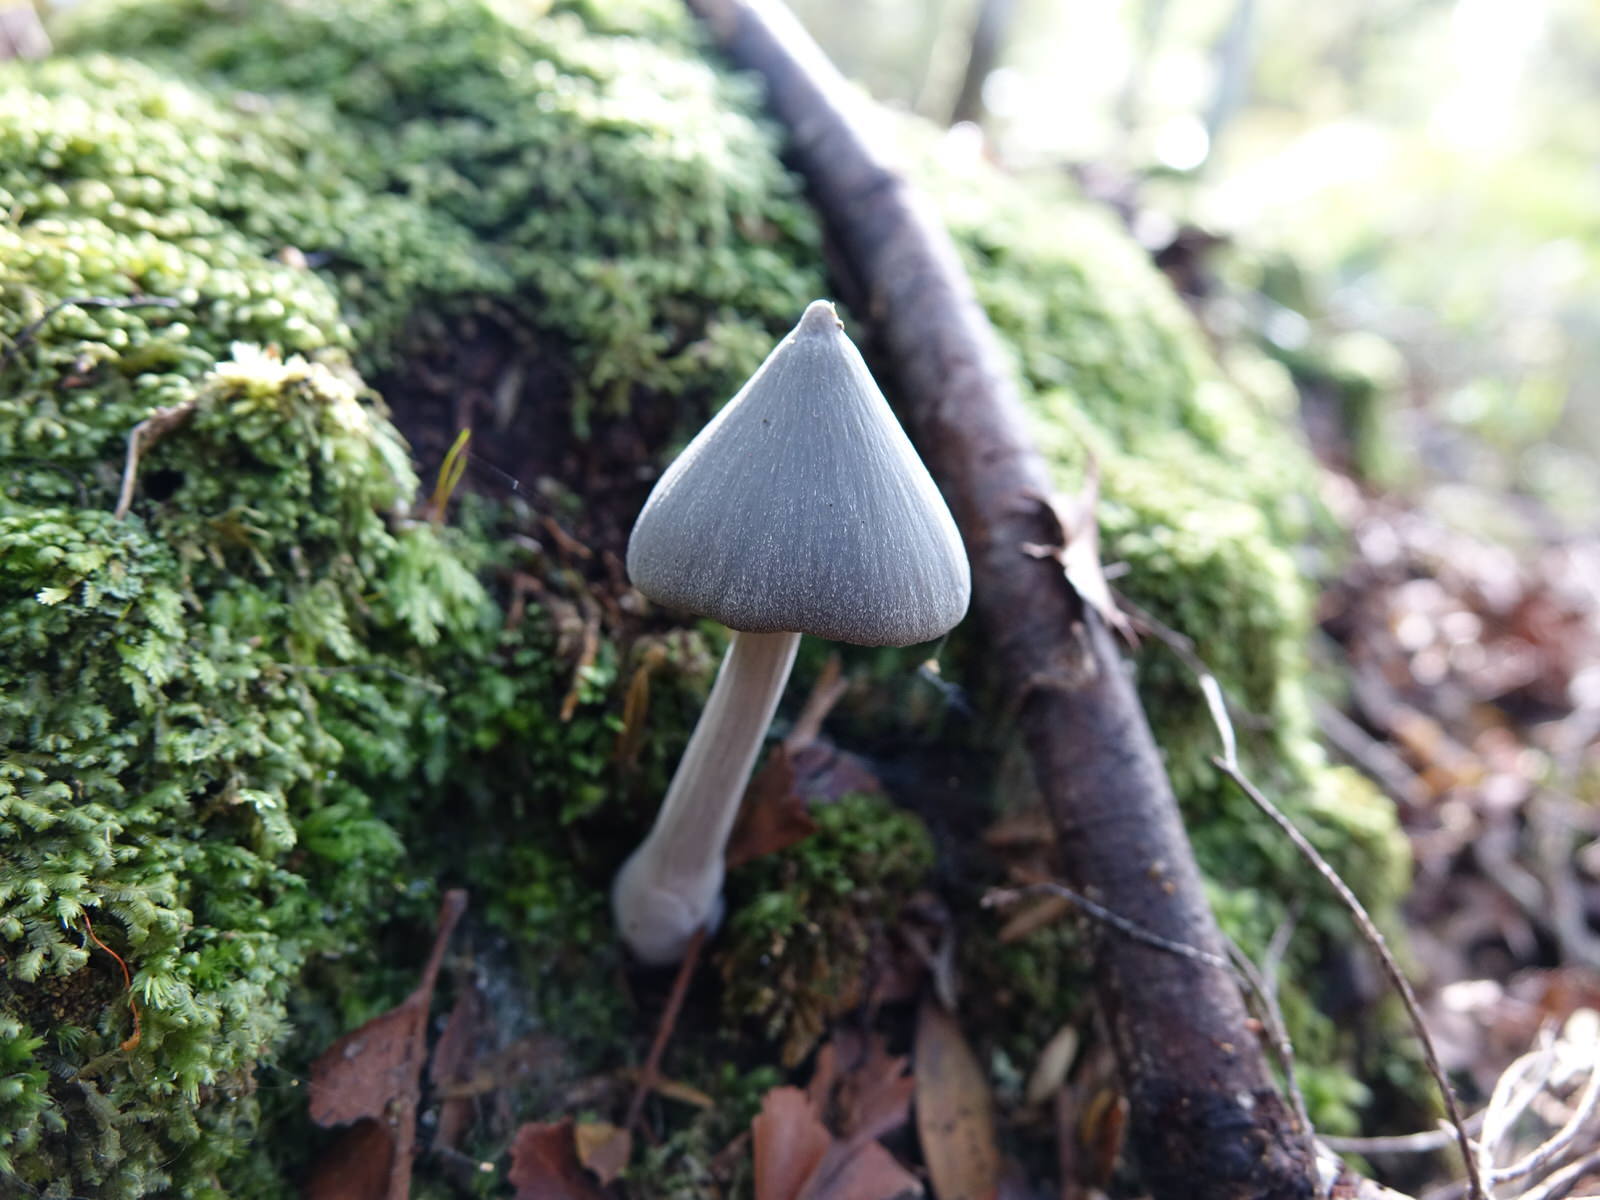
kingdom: Fungi
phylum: Basidiomycota
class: Agaricomycetes
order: Agaricales
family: Entolomataceae
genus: Entoloma
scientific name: Entoloma canoconicum
